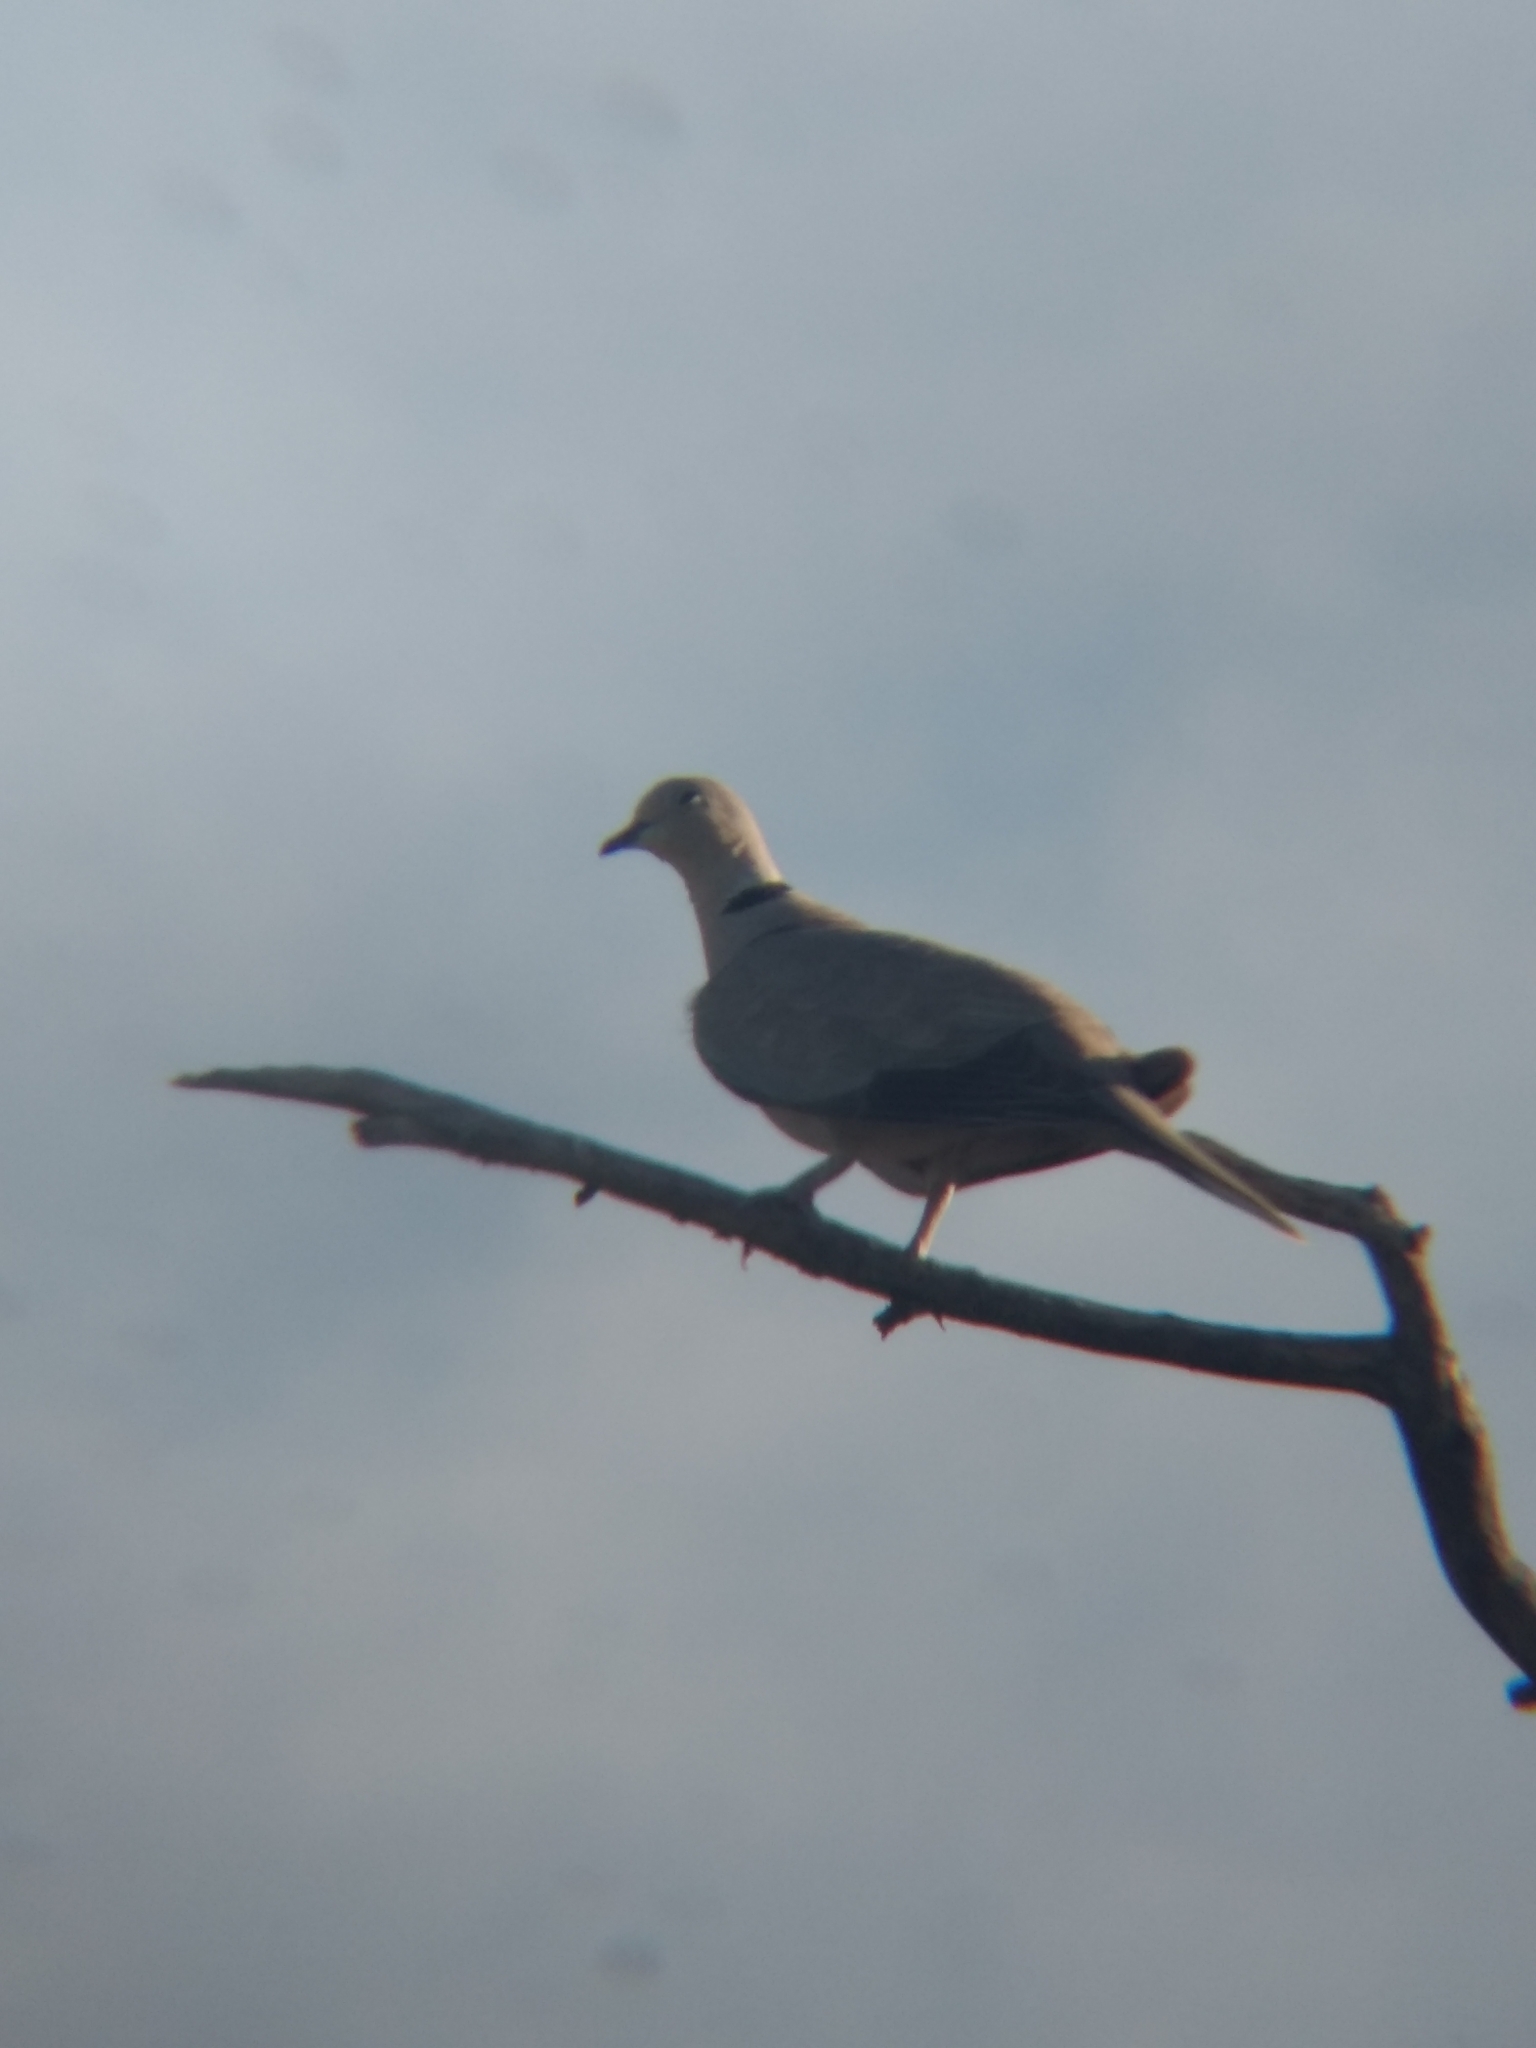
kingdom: Animalia
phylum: Chordata
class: Aves
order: Columbiformes
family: Columbidae
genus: Streptopelia
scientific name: Streptopelia decaocto
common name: Eurasian collared dove
